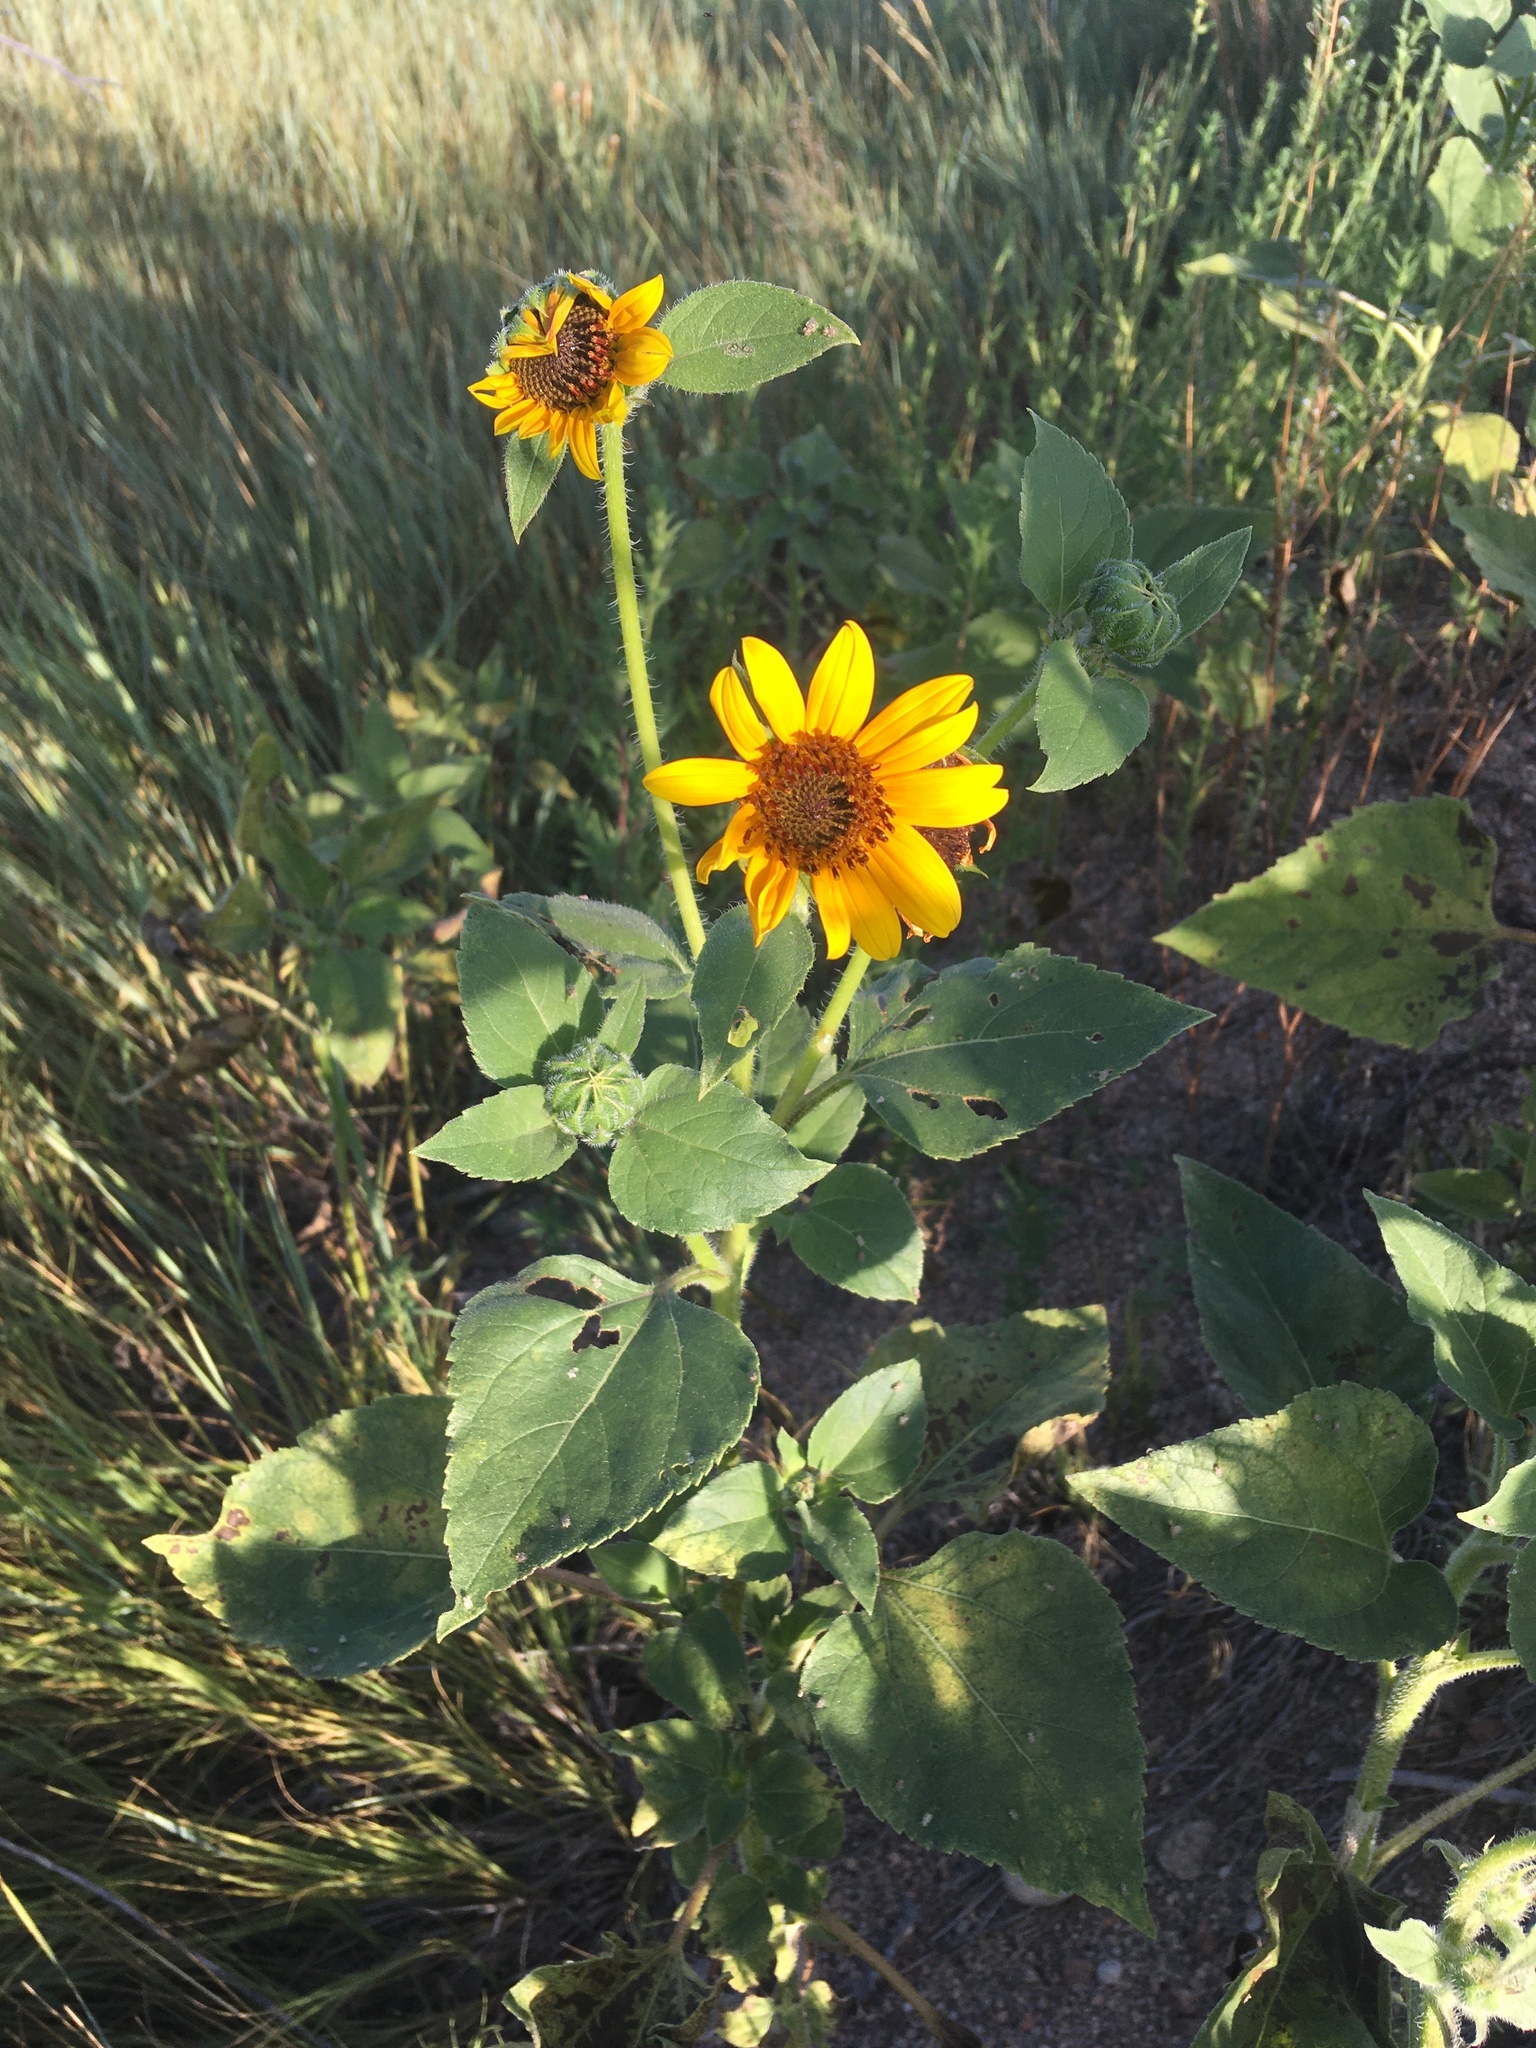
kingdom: Plantae
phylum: Tracheophyta
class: Magnoliopsida
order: Asterales
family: Asteraceae
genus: Helianthus
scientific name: Helianthus annuus
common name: Sunflower
